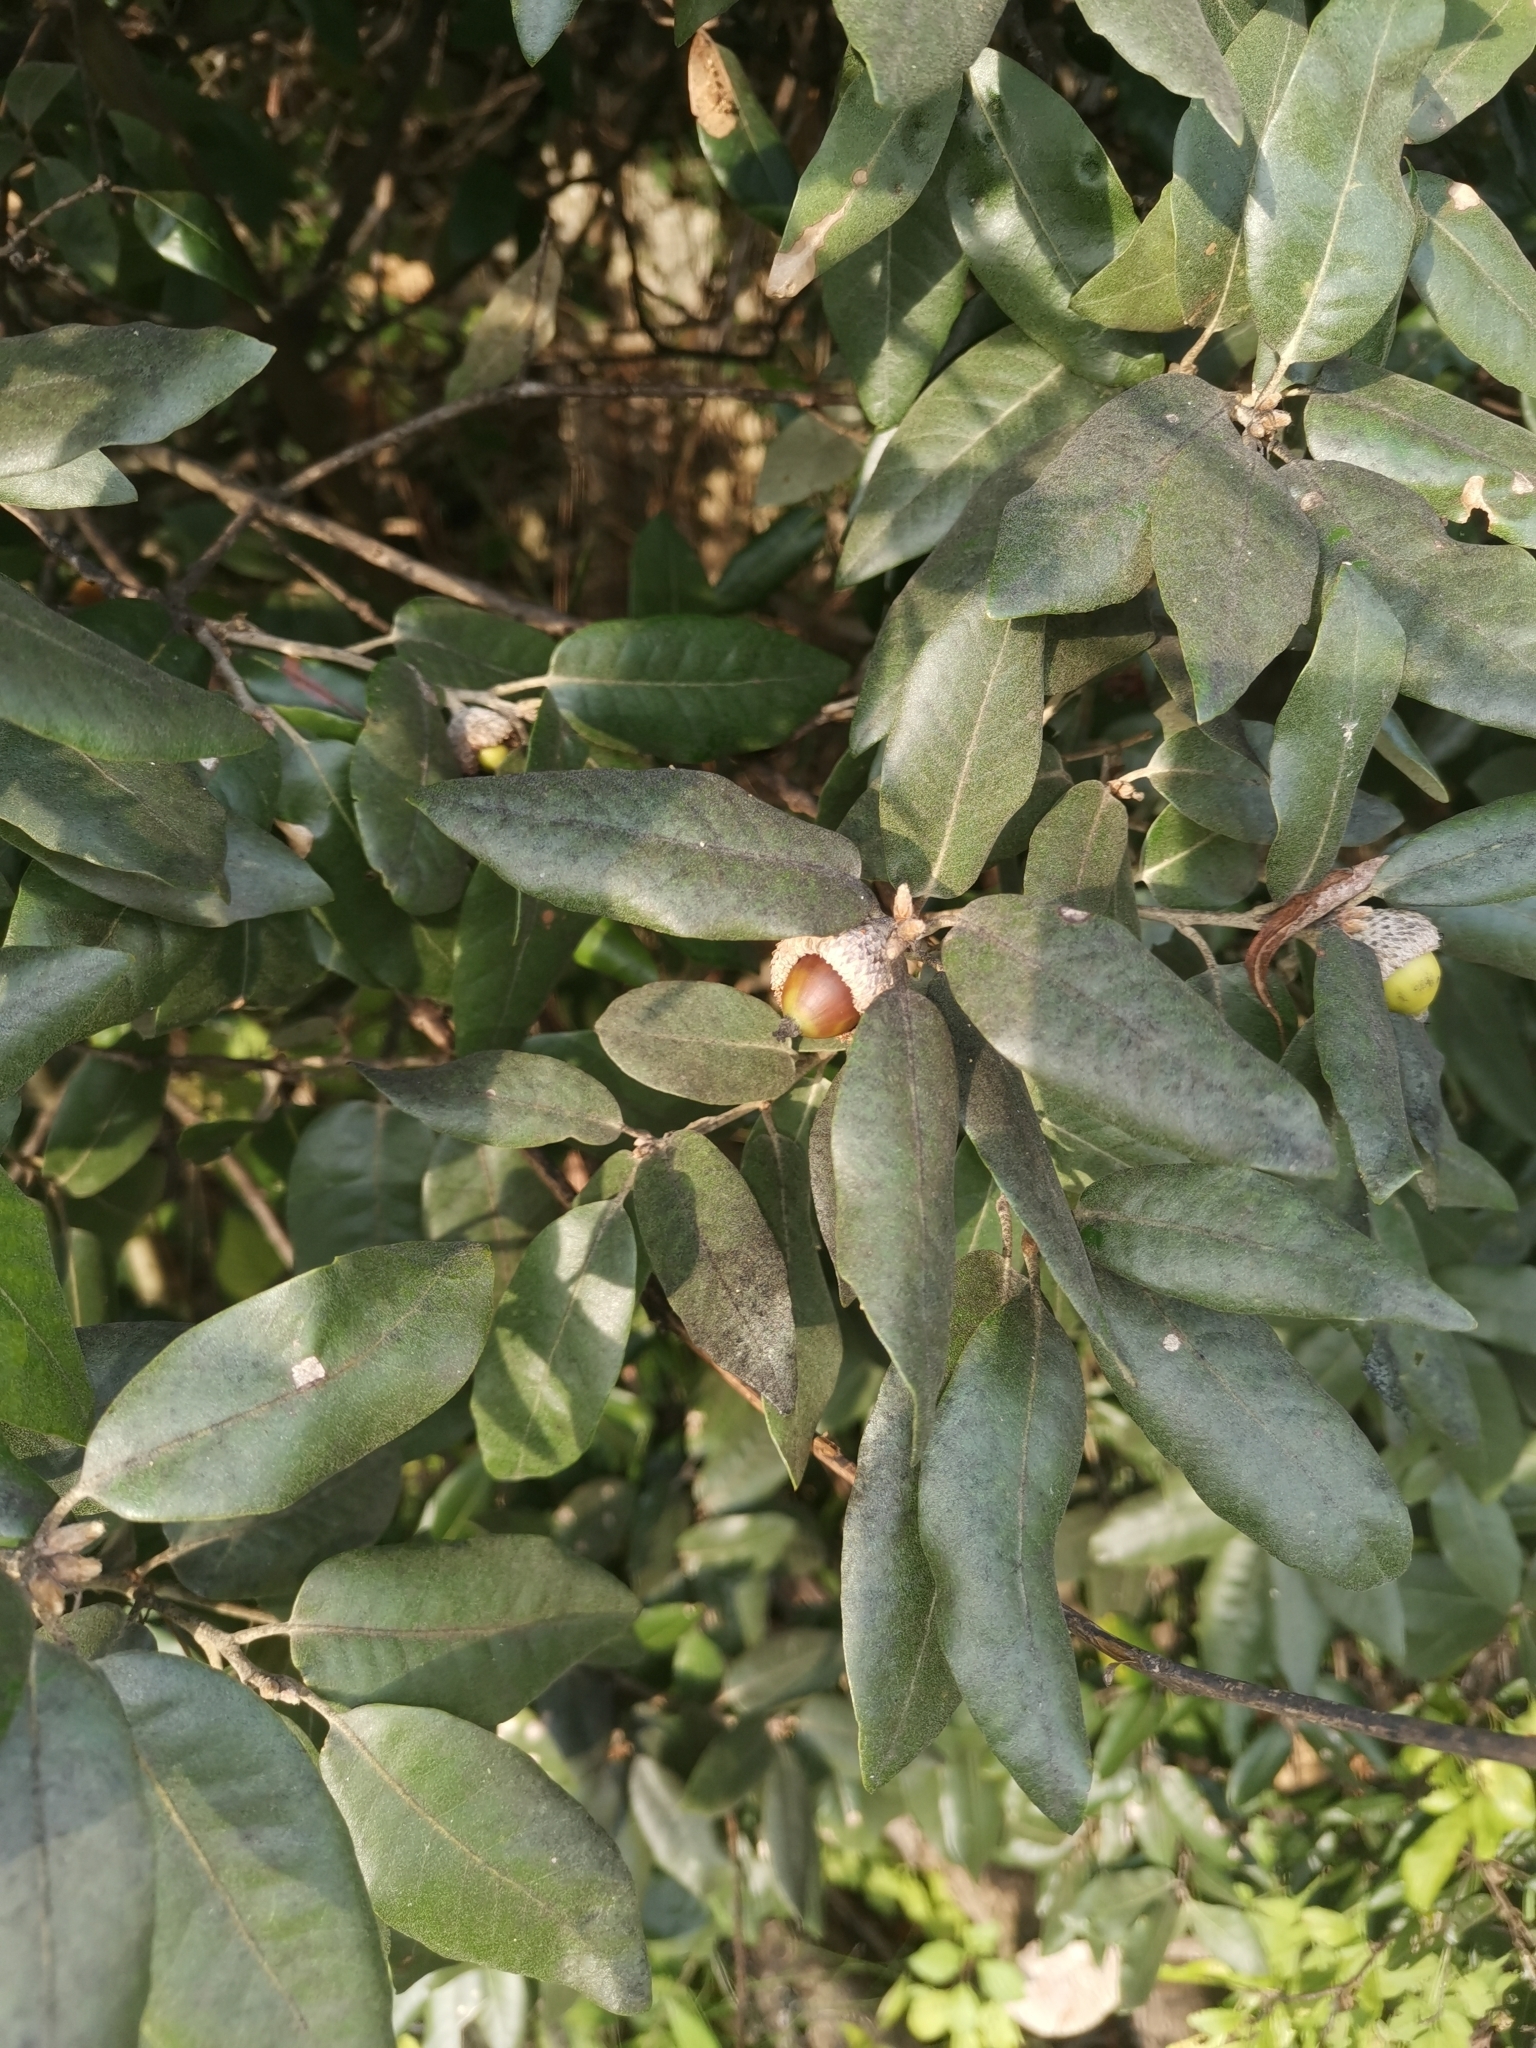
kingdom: Plantae
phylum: Tracheophyta
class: Magnoliopsida
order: Fagales
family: Fagaceae
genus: Quercus
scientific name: Quercus ilex
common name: Evergreen oak
